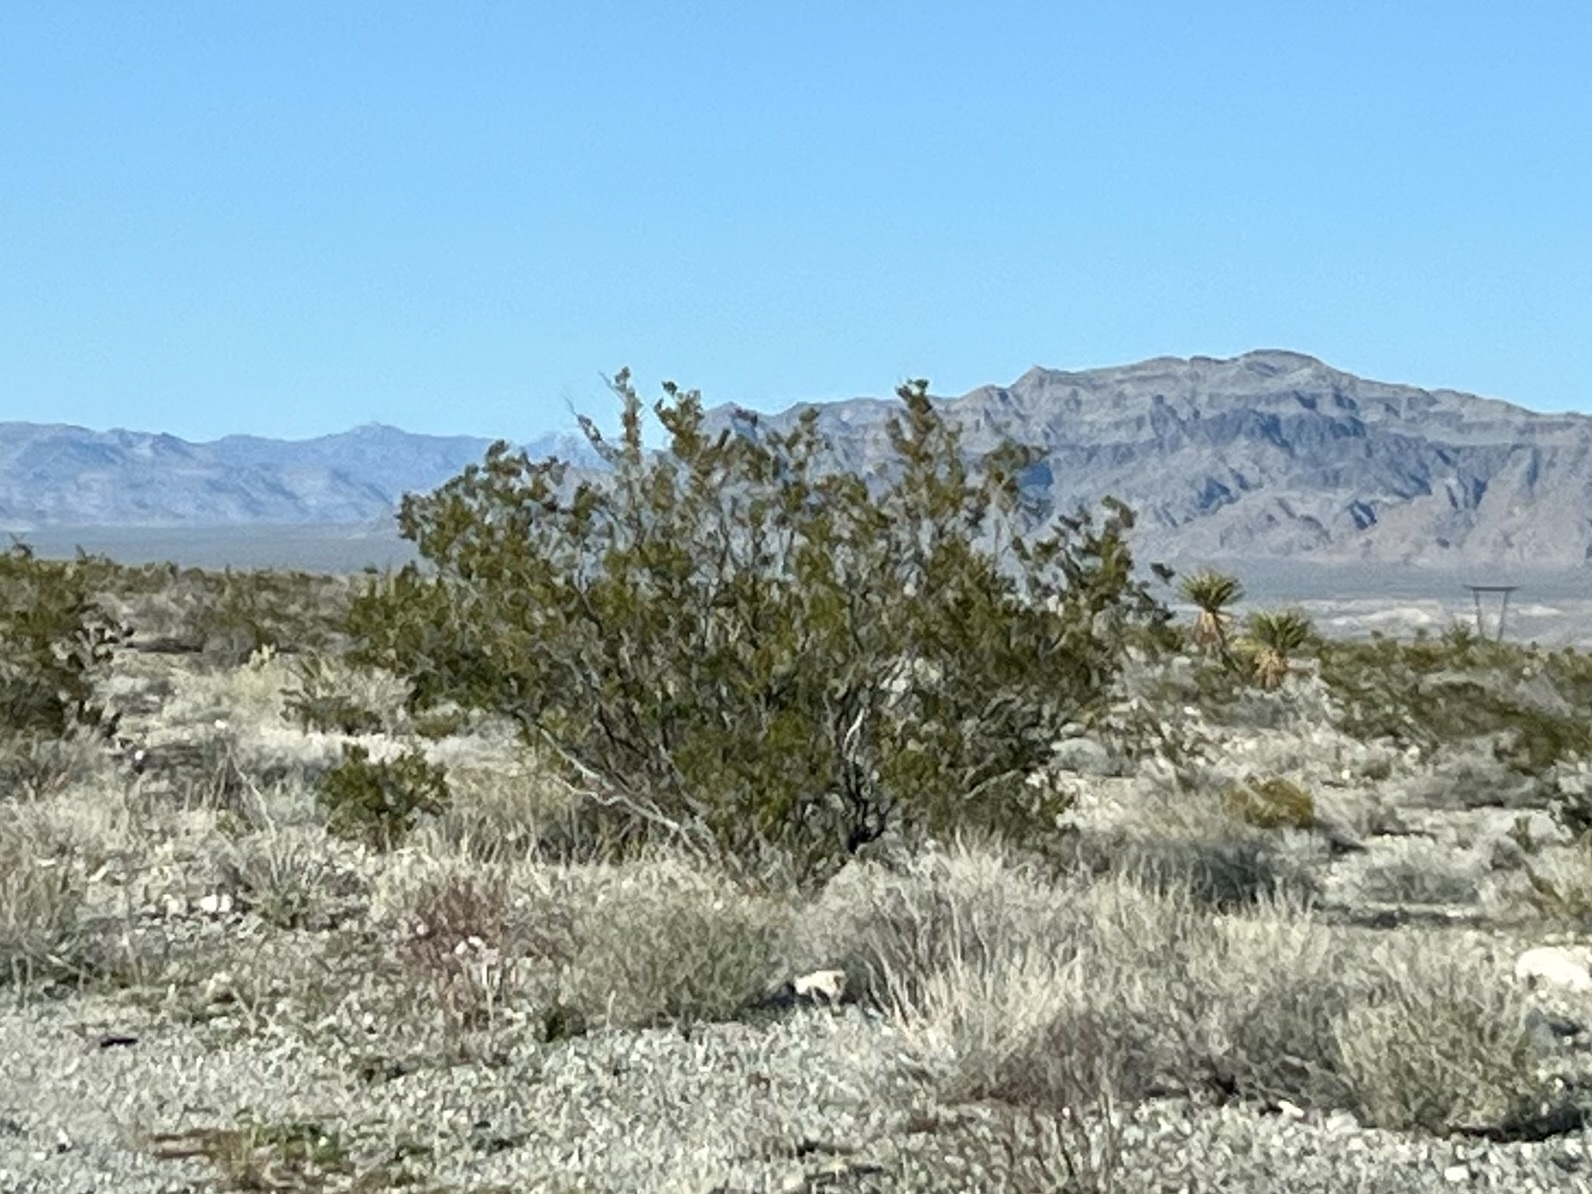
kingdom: Plantae
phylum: Tracheophyta
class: Magnoliopsida
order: Zygophyllales
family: Zygophyllaceae
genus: Larrea
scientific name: Larrea tridentata
